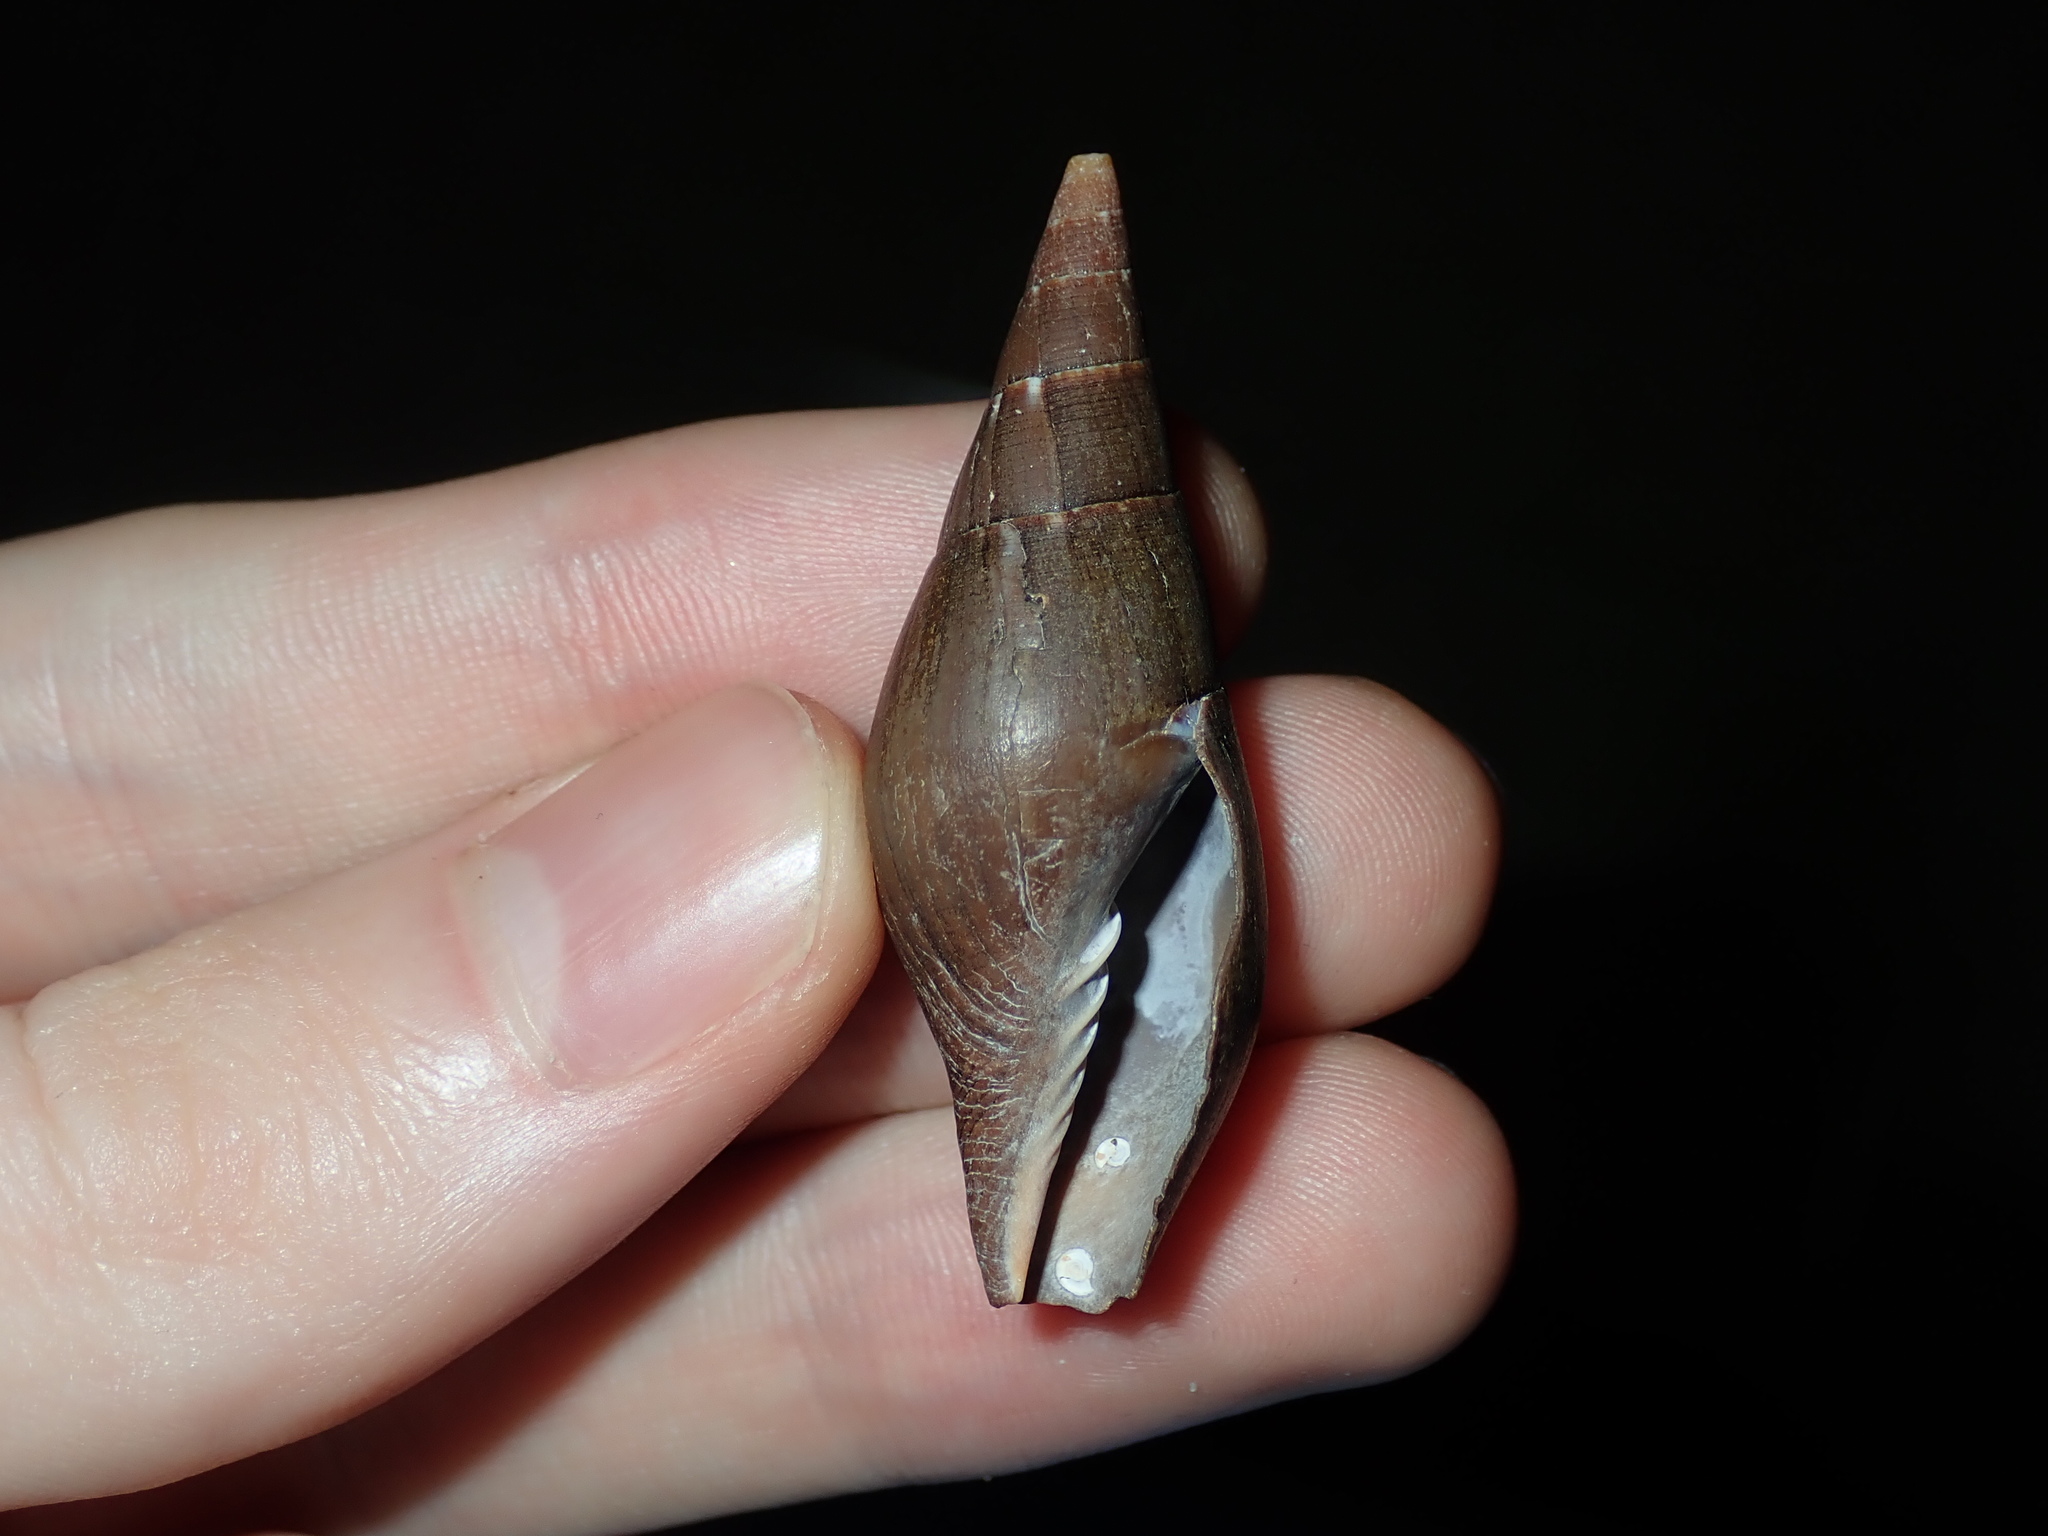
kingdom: Animalia
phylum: Mollusca
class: Gastropoda
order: Neogastropoda
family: Mitridae
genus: Isara
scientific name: Isara carbonaria
